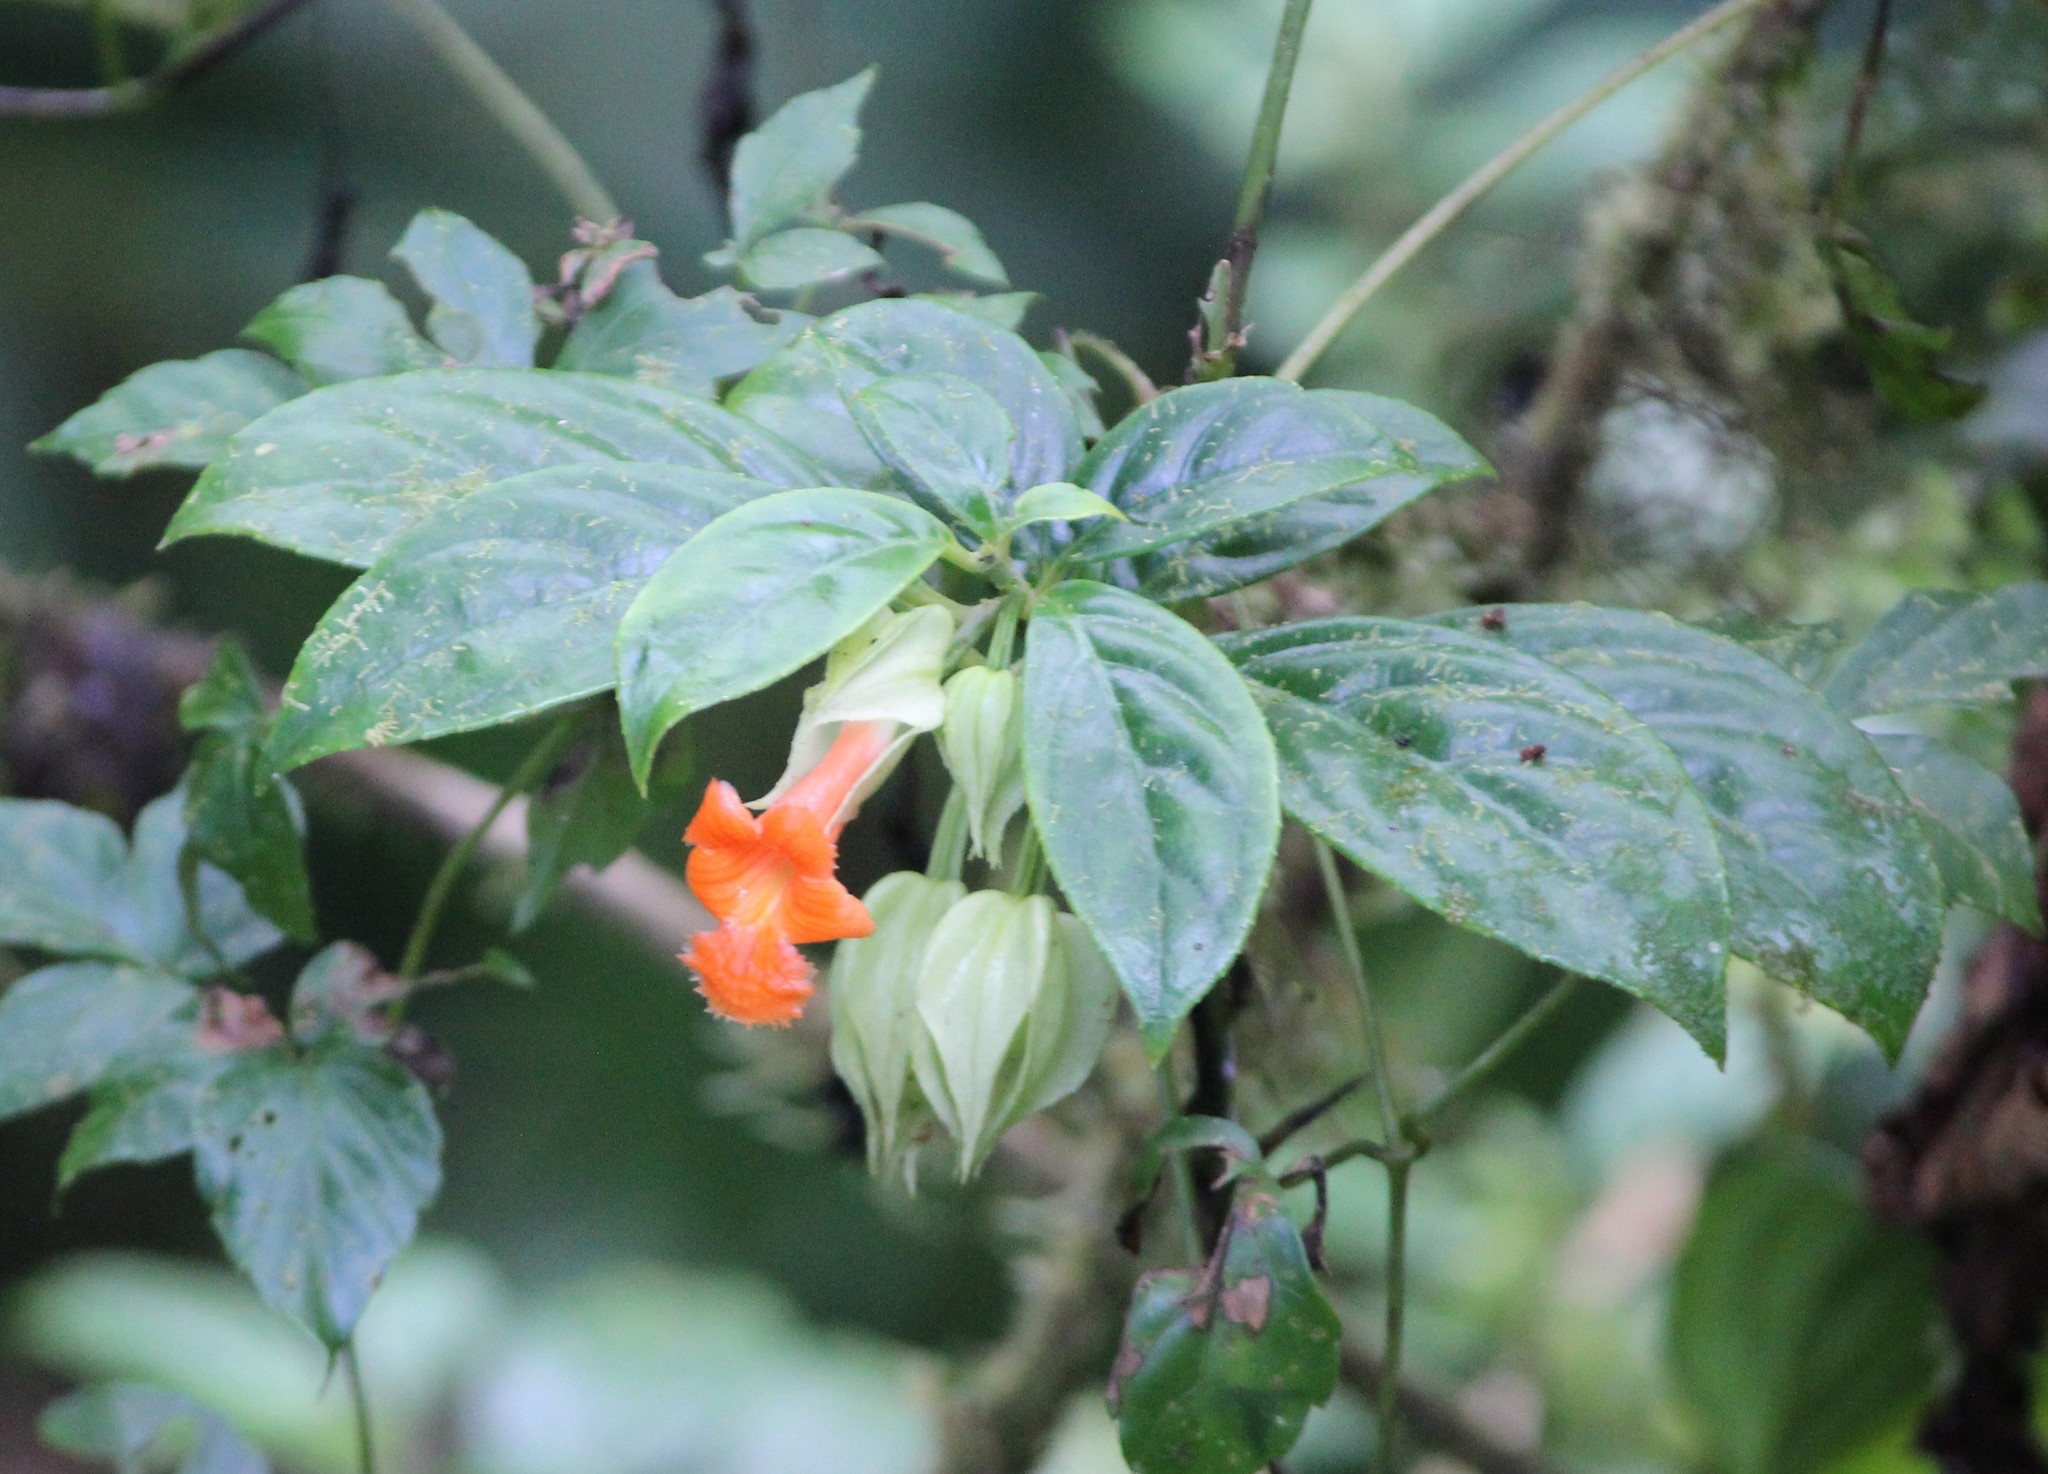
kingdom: Plantae
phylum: Tracheophyta
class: Magnoliopsida
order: Lamiales
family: Gesneriaceae
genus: Drymonia
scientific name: Drymonia rubra
